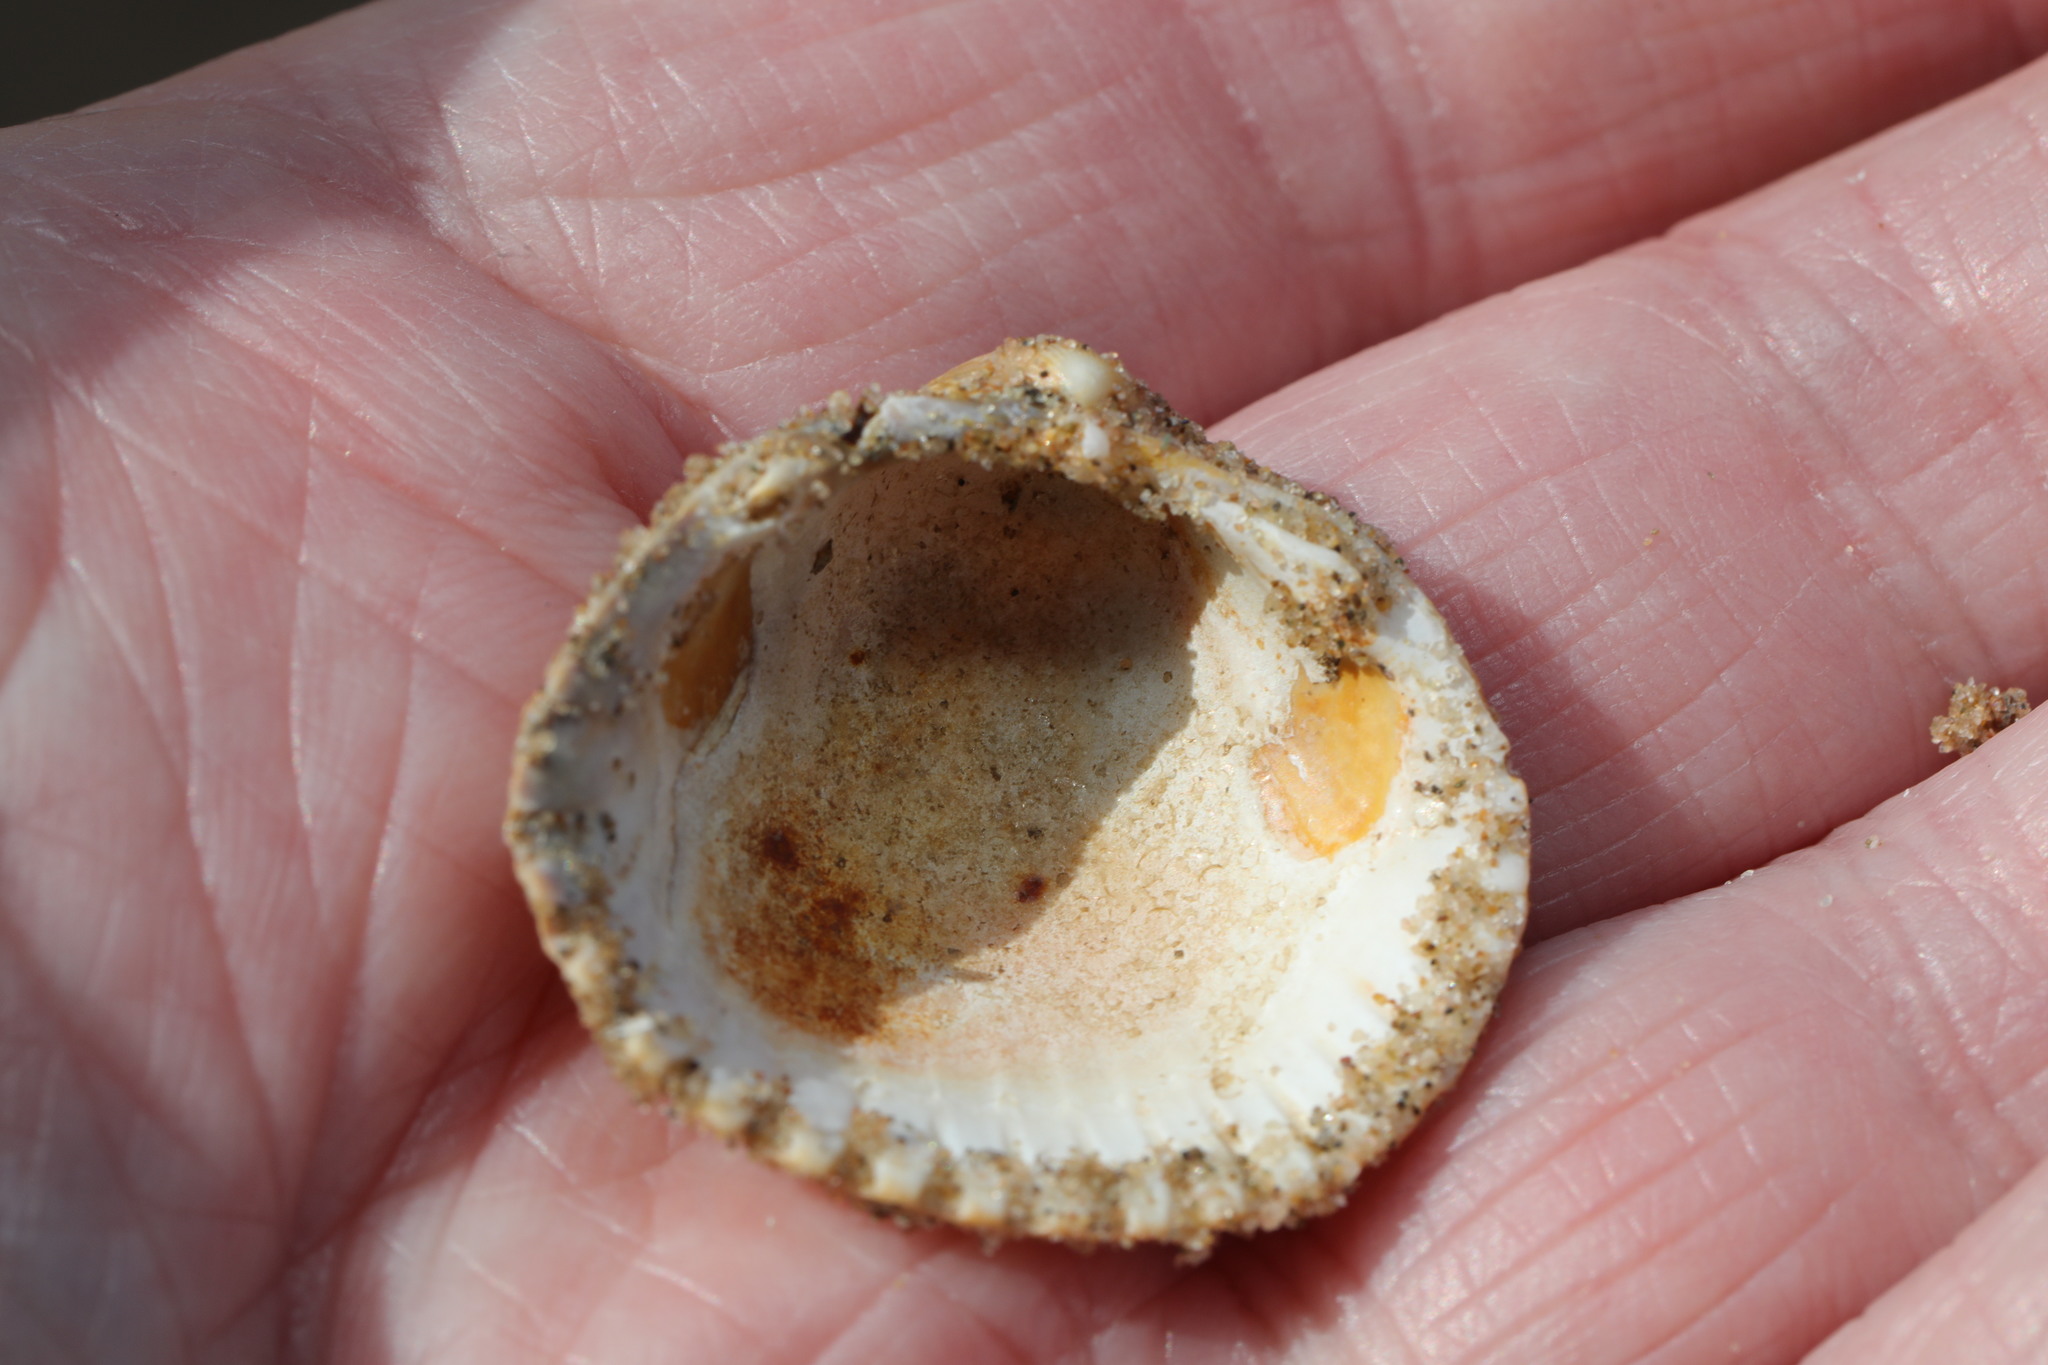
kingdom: Animalia
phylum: Mollusca
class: Bivalvia
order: Cardiida
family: Cardiidae
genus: Cerastoderma
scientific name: Cerastoderma edule
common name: Common cockle
